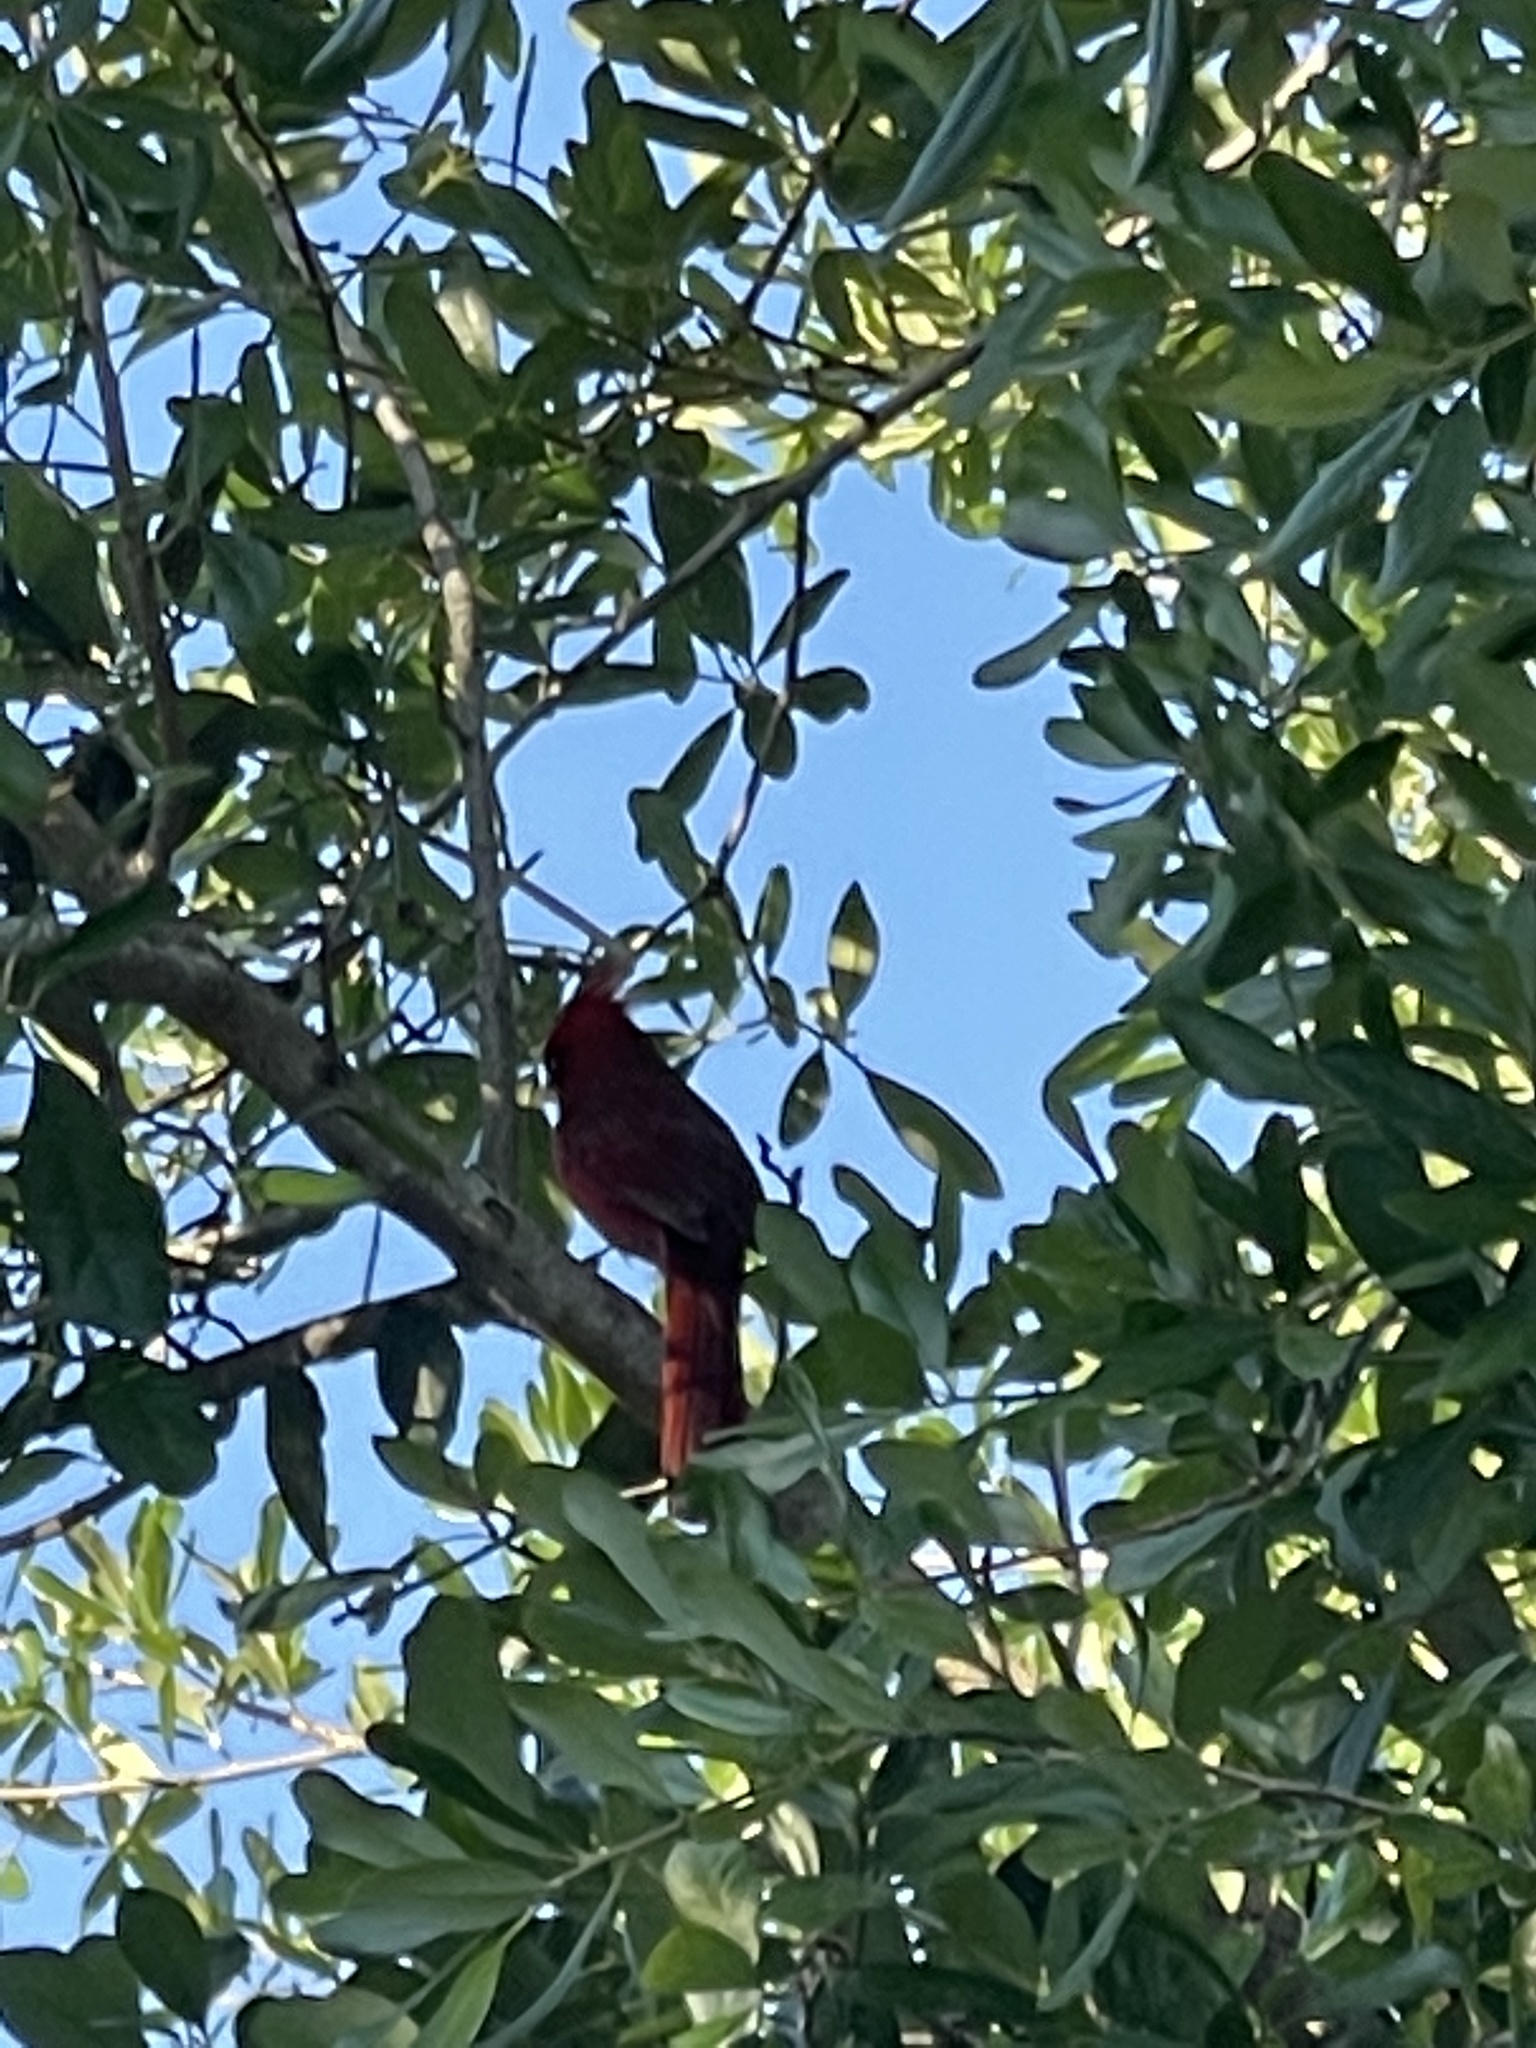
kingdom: Animalia
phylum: Chordata
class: Aves
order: Passeriformes
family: Cardinalidae
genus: Cardinalis
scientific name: Cardinalis cardinalis
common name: Northern cardinal
